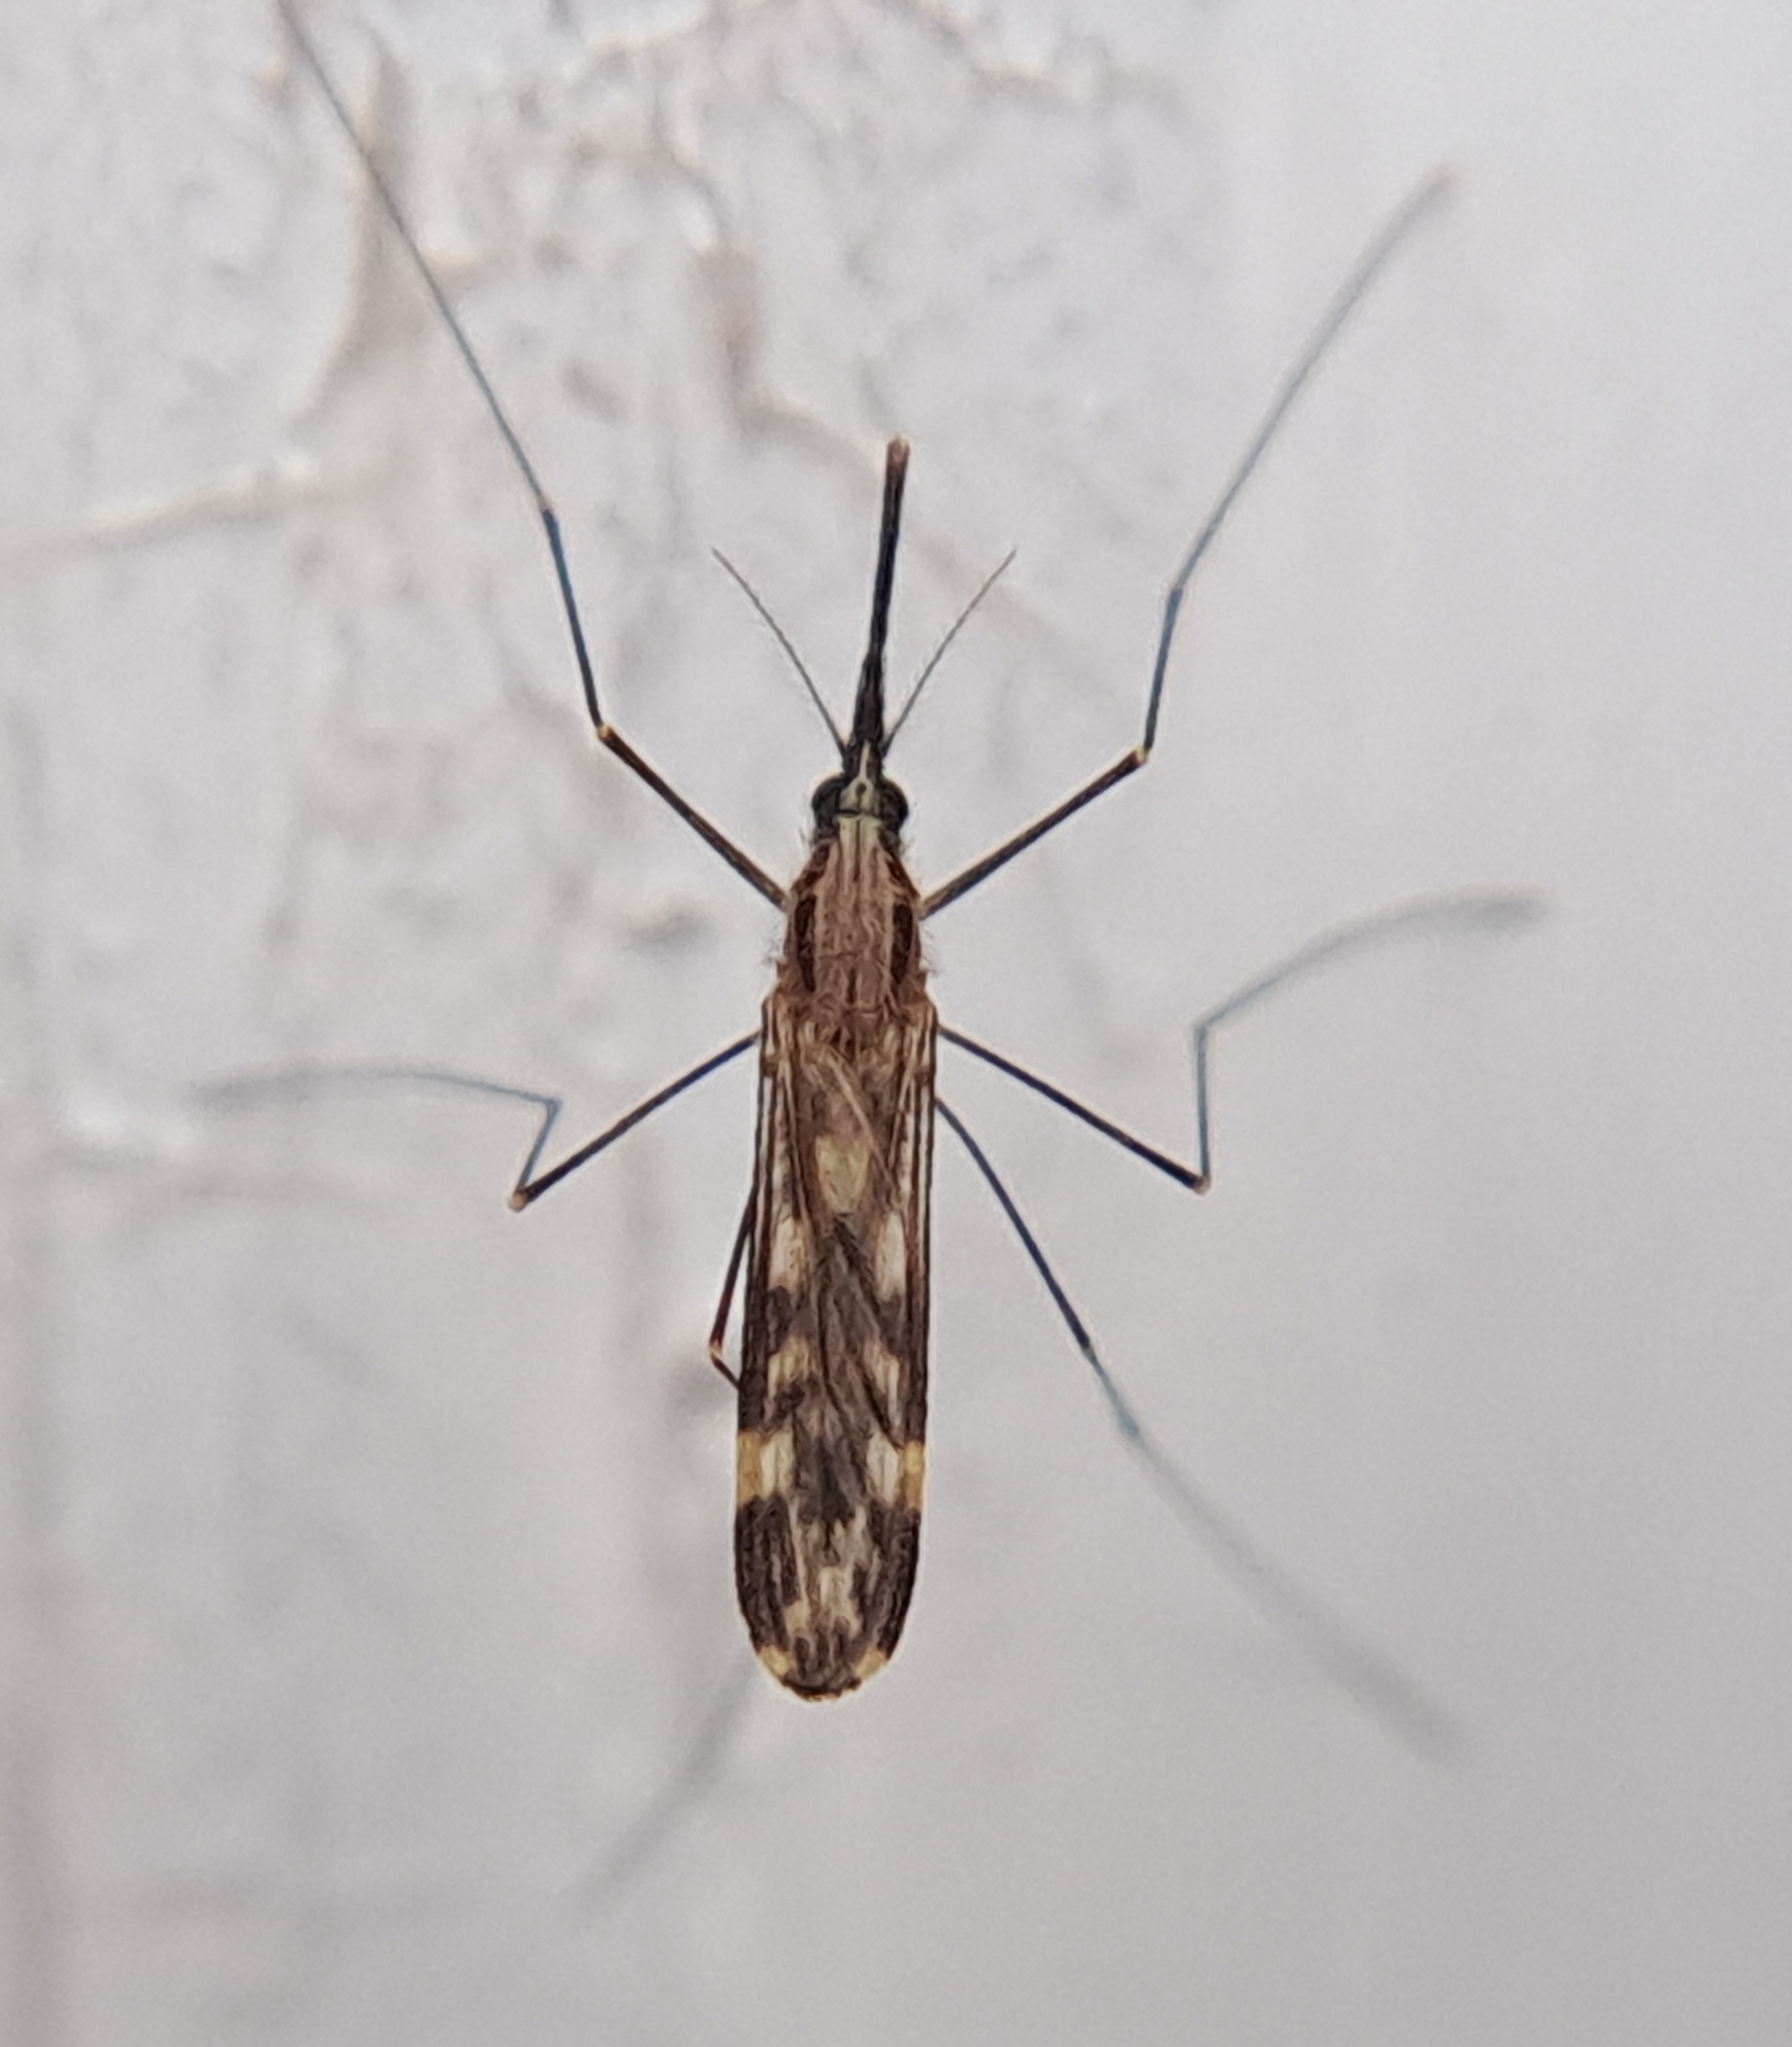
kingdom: Animalia
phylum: Arthropoda
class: Insecta
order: Diptera
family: Culicidae
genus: Anopheles
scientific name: Anopheles punctipennis
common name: Woodland malaria mosquito
